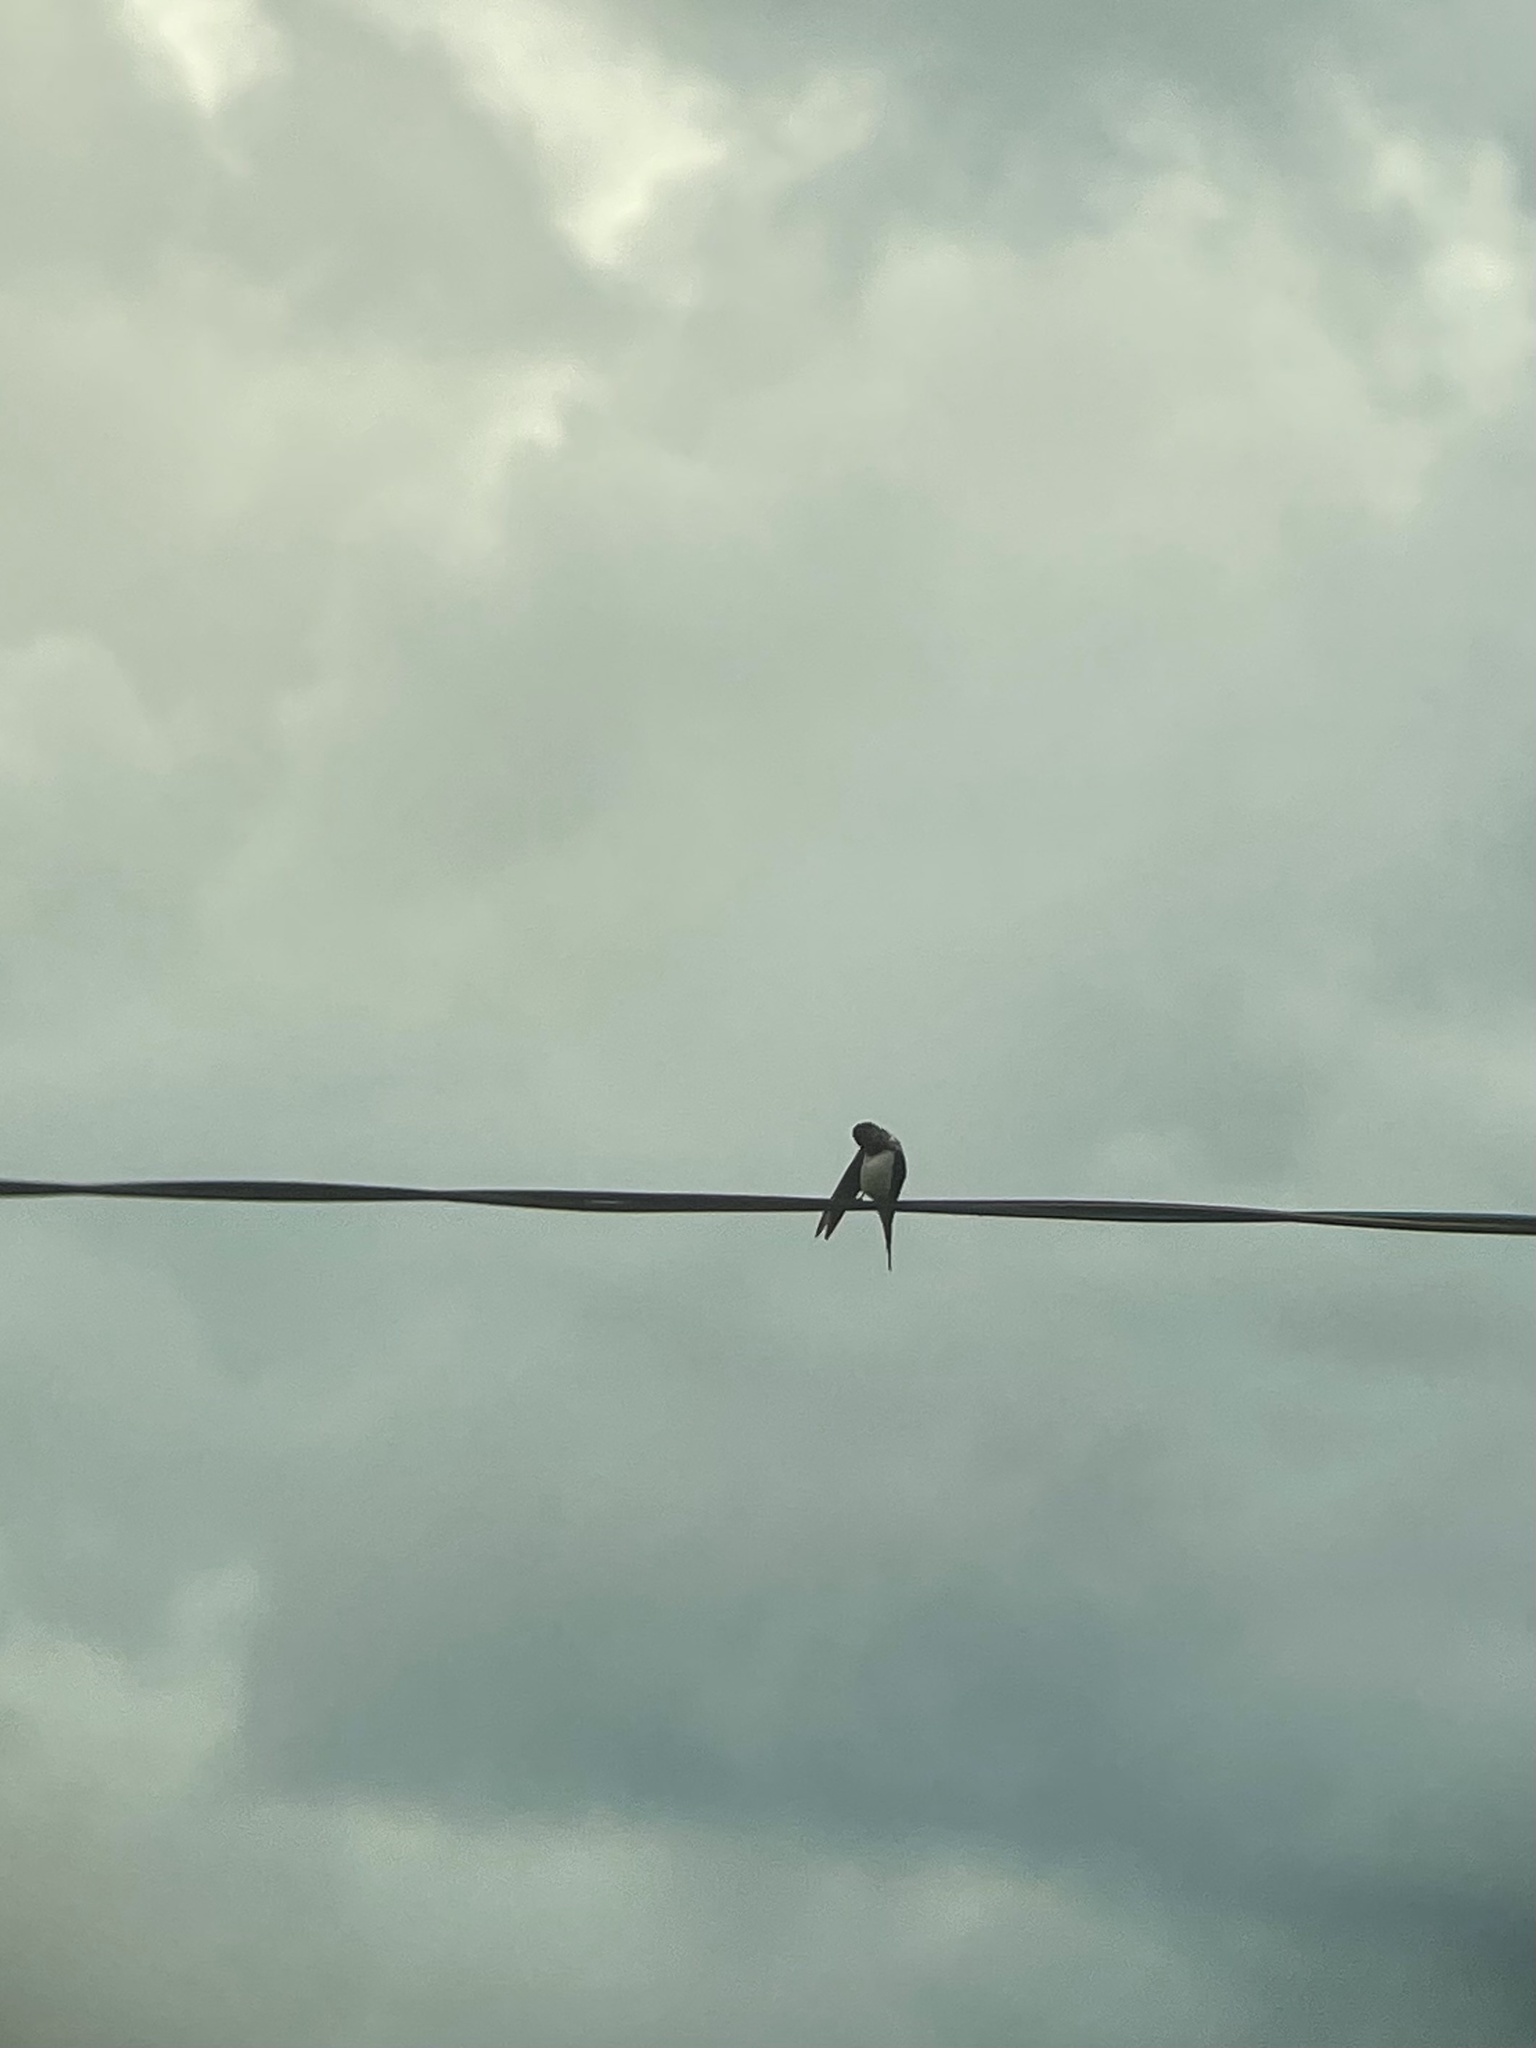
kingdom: Animalia
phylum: Chordata
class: Aves
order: Passeriformes
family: Hirundinidae
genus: Hirundo
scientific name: Hirundo rustica
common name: Barn swallow
